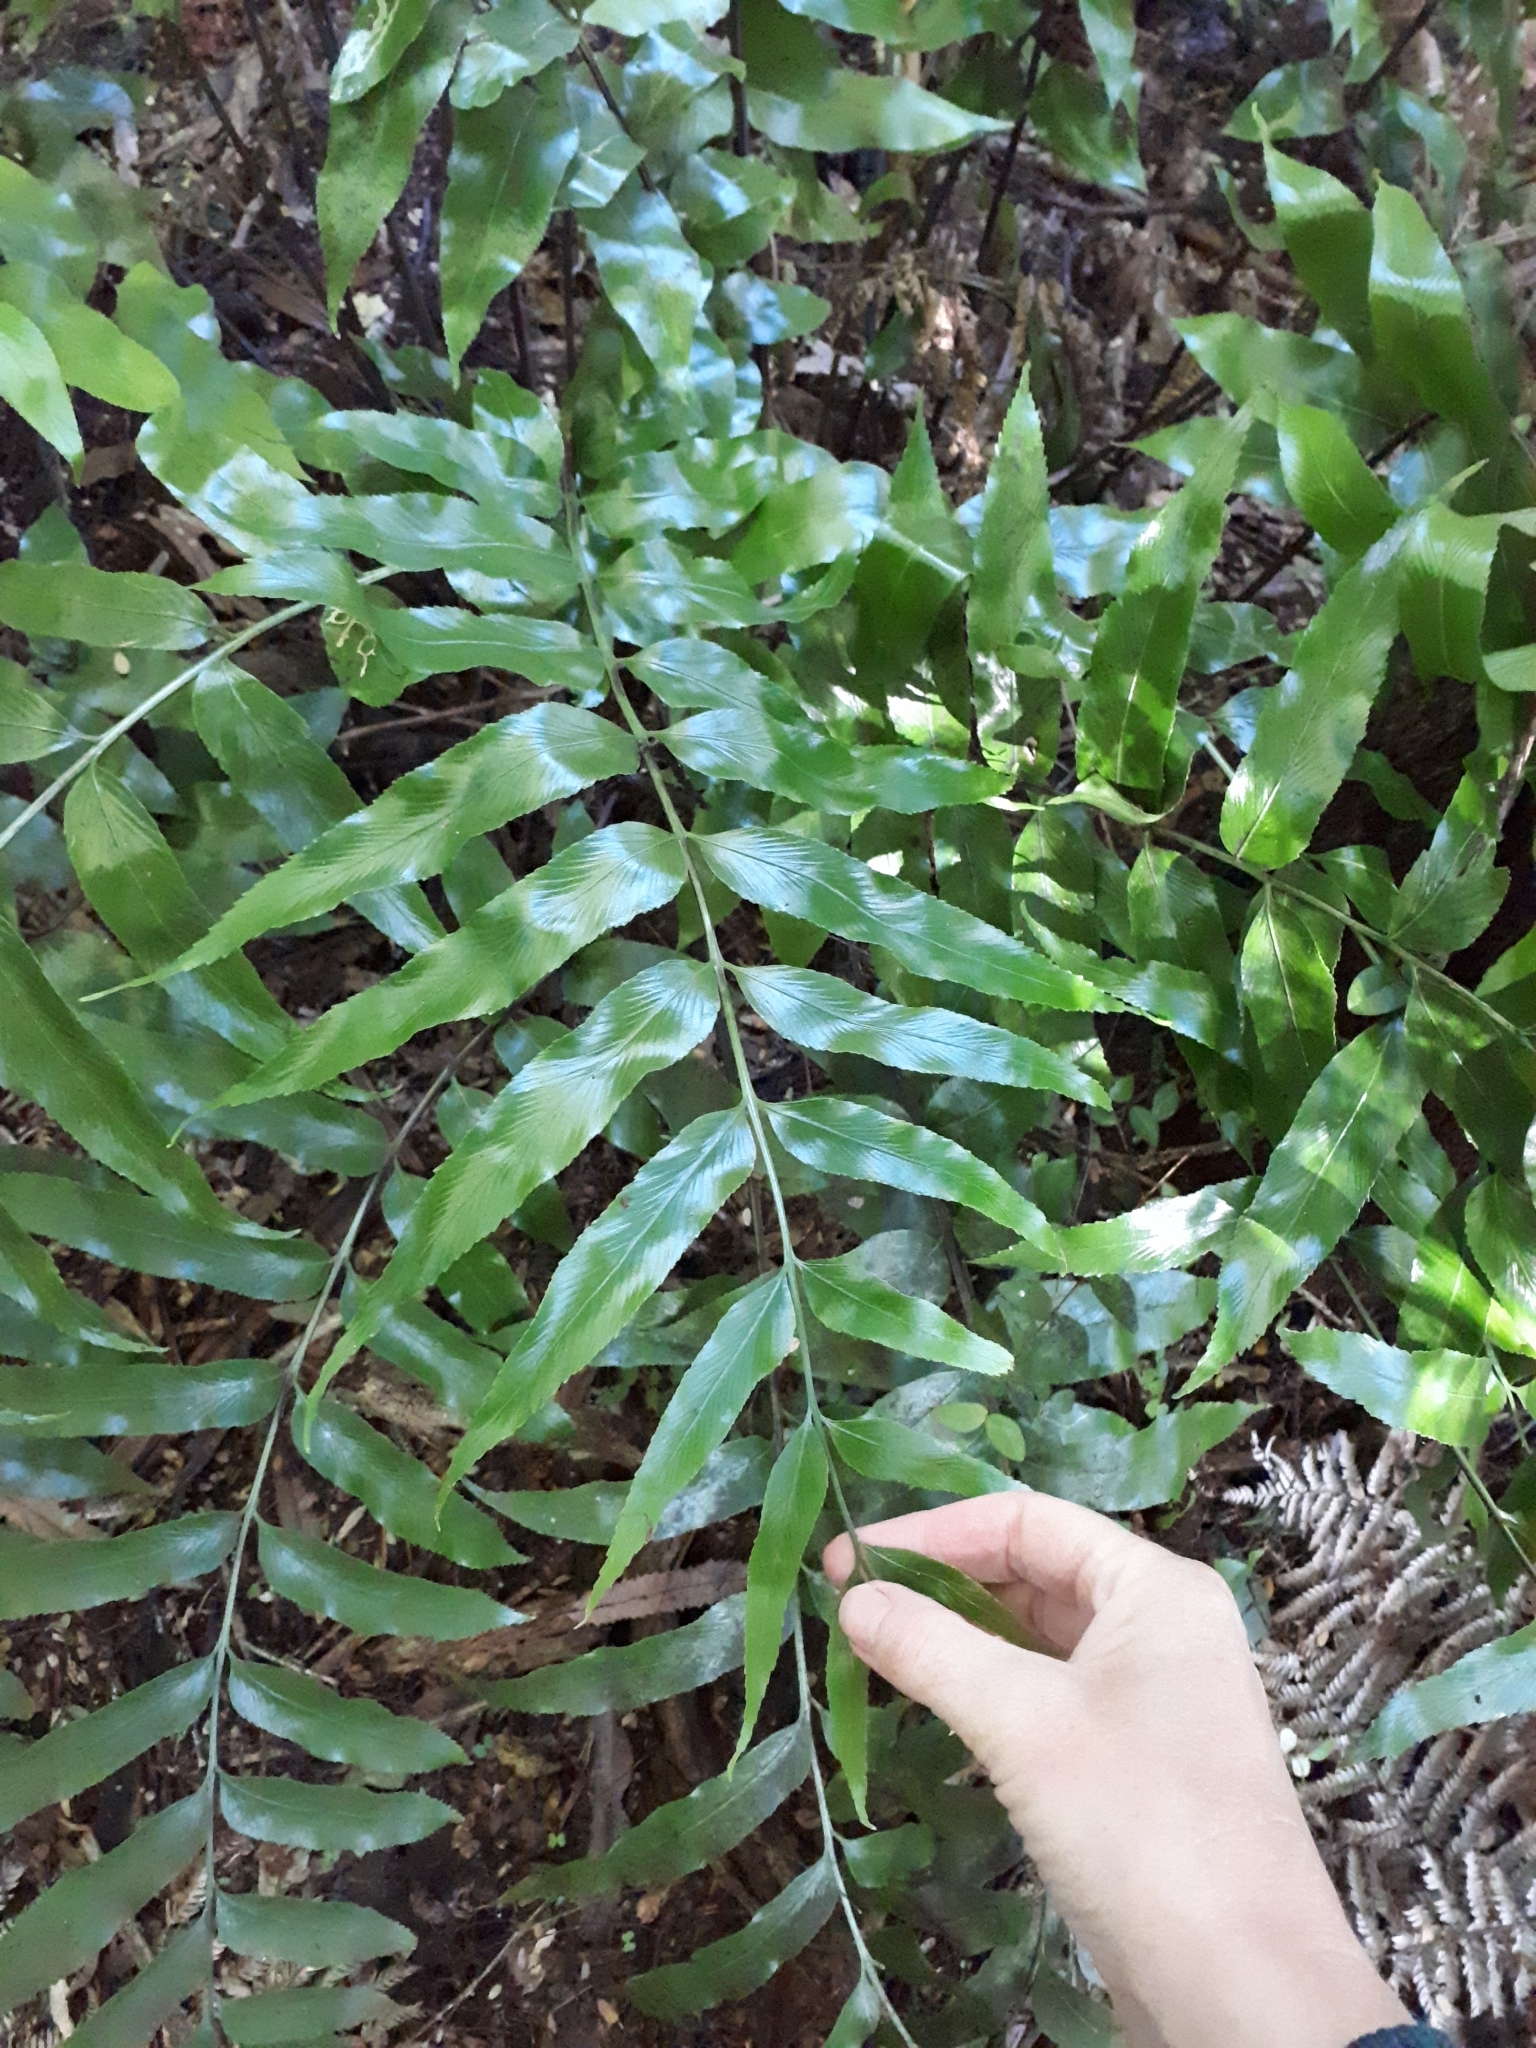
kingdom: Plantae
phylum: Tracheophyta
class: Polypodiopsida
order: Polypodiales
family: Aspleniaceae
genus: Asplenium
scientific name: Asplenium oblongifolium
